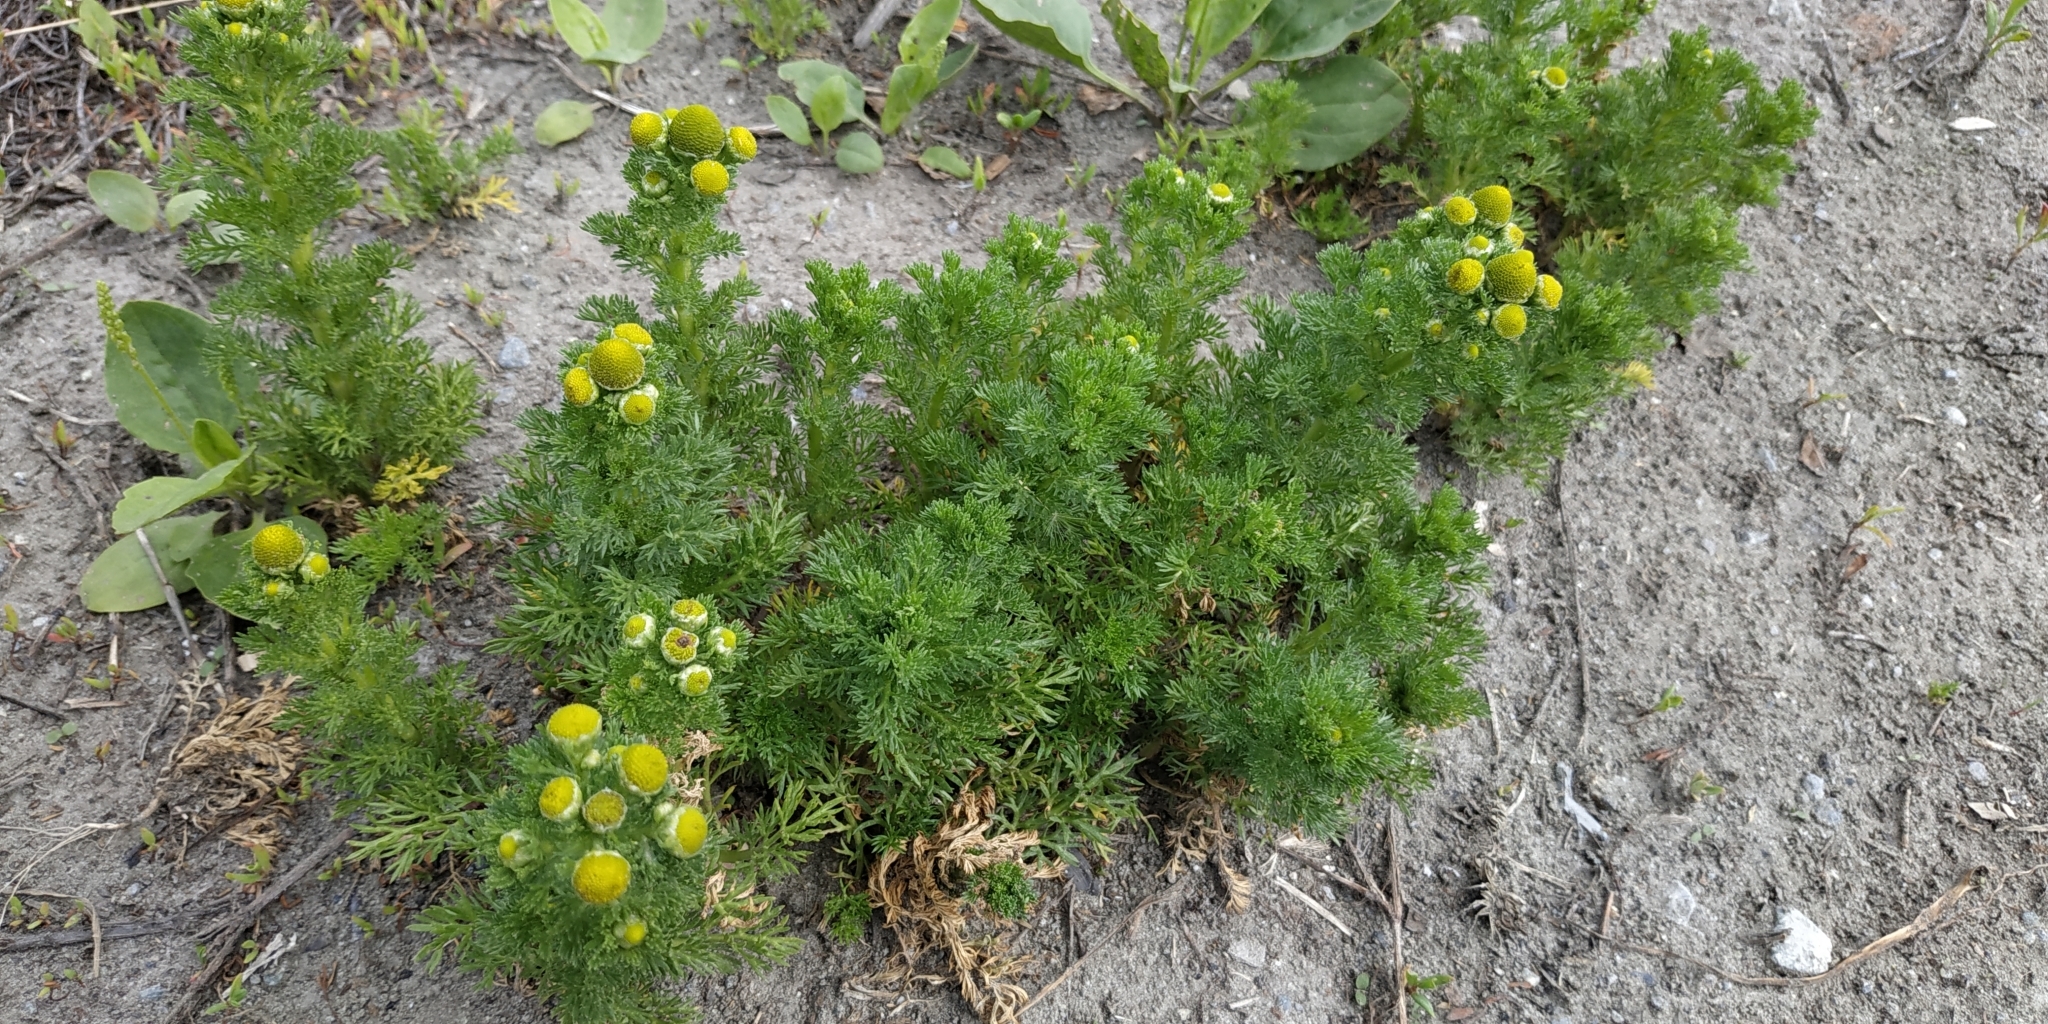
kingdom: Plantae
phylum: Tracheophyta
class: Magnoliopsida
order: Asterales
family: Asteraceae
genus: Matricaria
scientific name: Matricaria discoidea
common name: Disc mayweed
